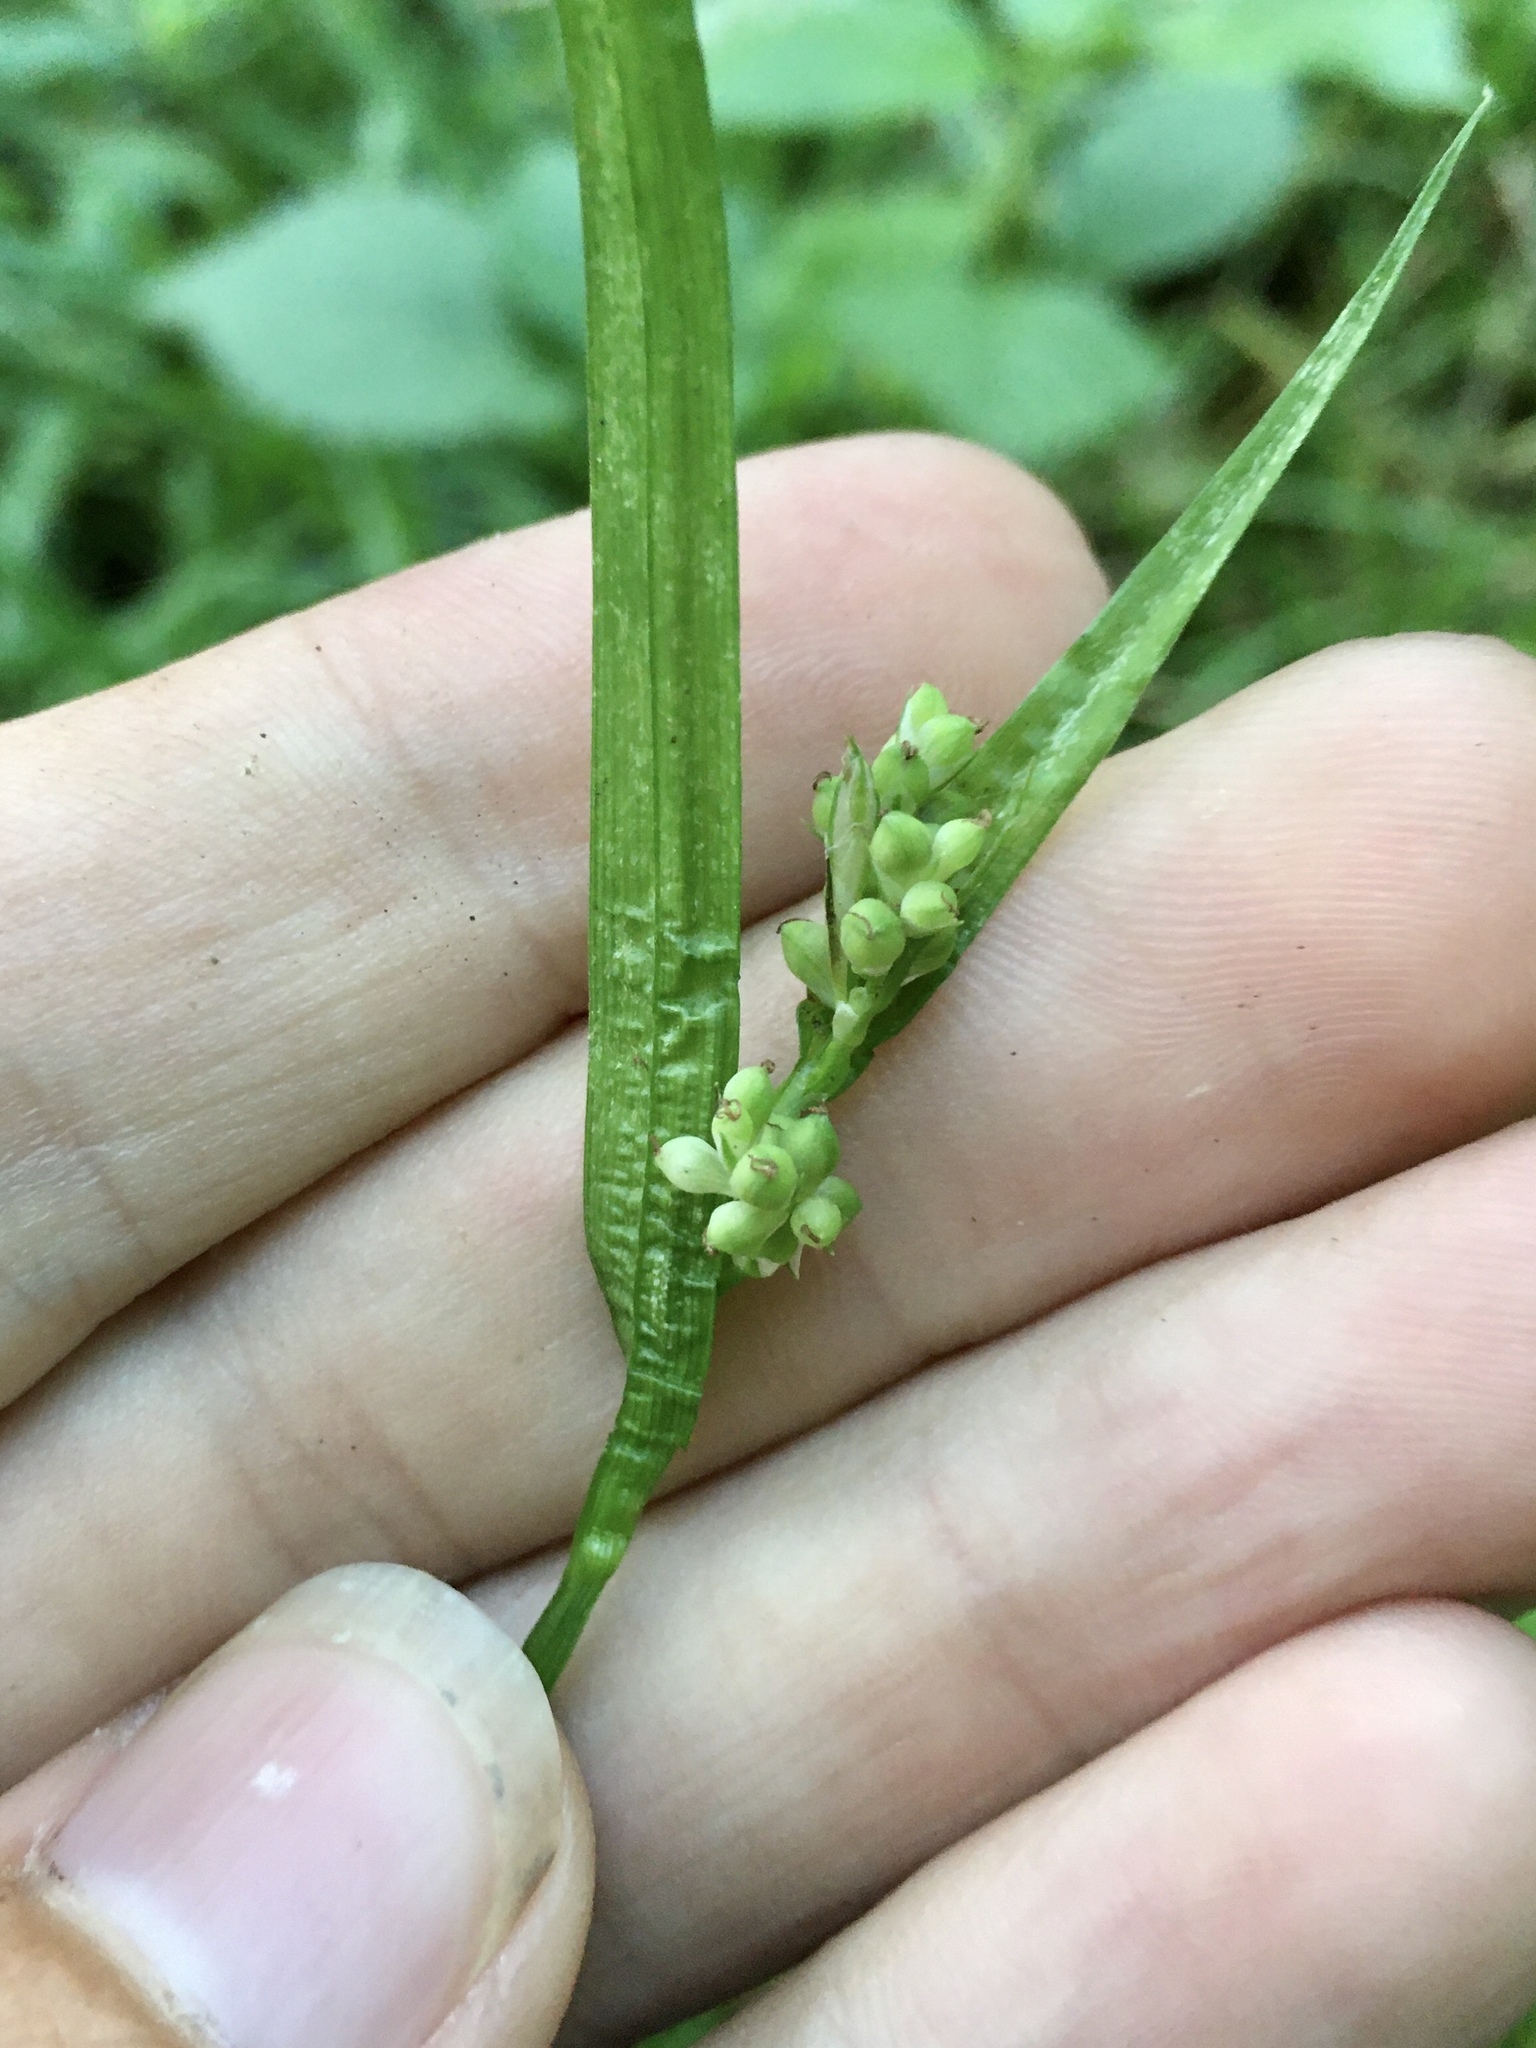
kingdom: Plantae
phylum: Tracheophyta
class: Liliopsida
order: Poales
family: Cyperaceae
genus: Carex
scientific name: Carex blanda
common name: Bland sedge
